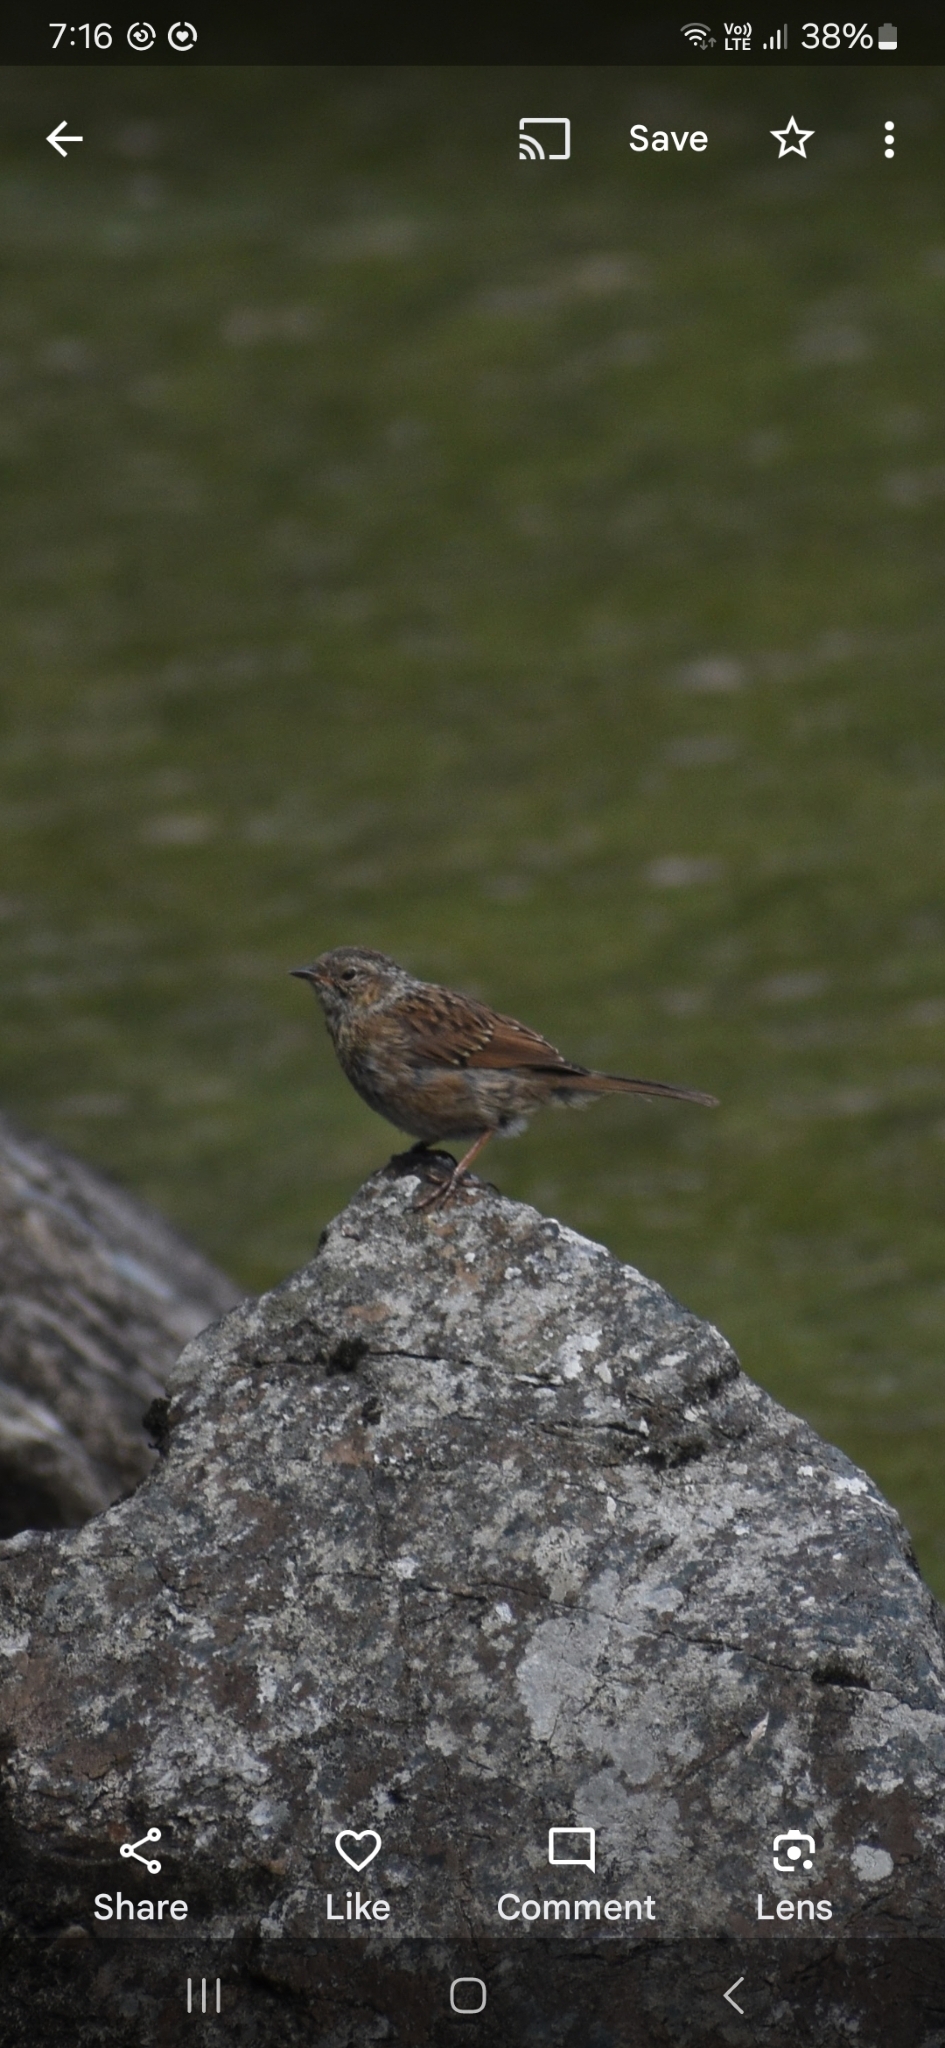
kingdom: Animalia
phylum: Chordata
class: Aves
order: Passeriformes
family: Prunellidae
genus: Prunella
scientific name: Prunella modularis
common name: Dunnock
